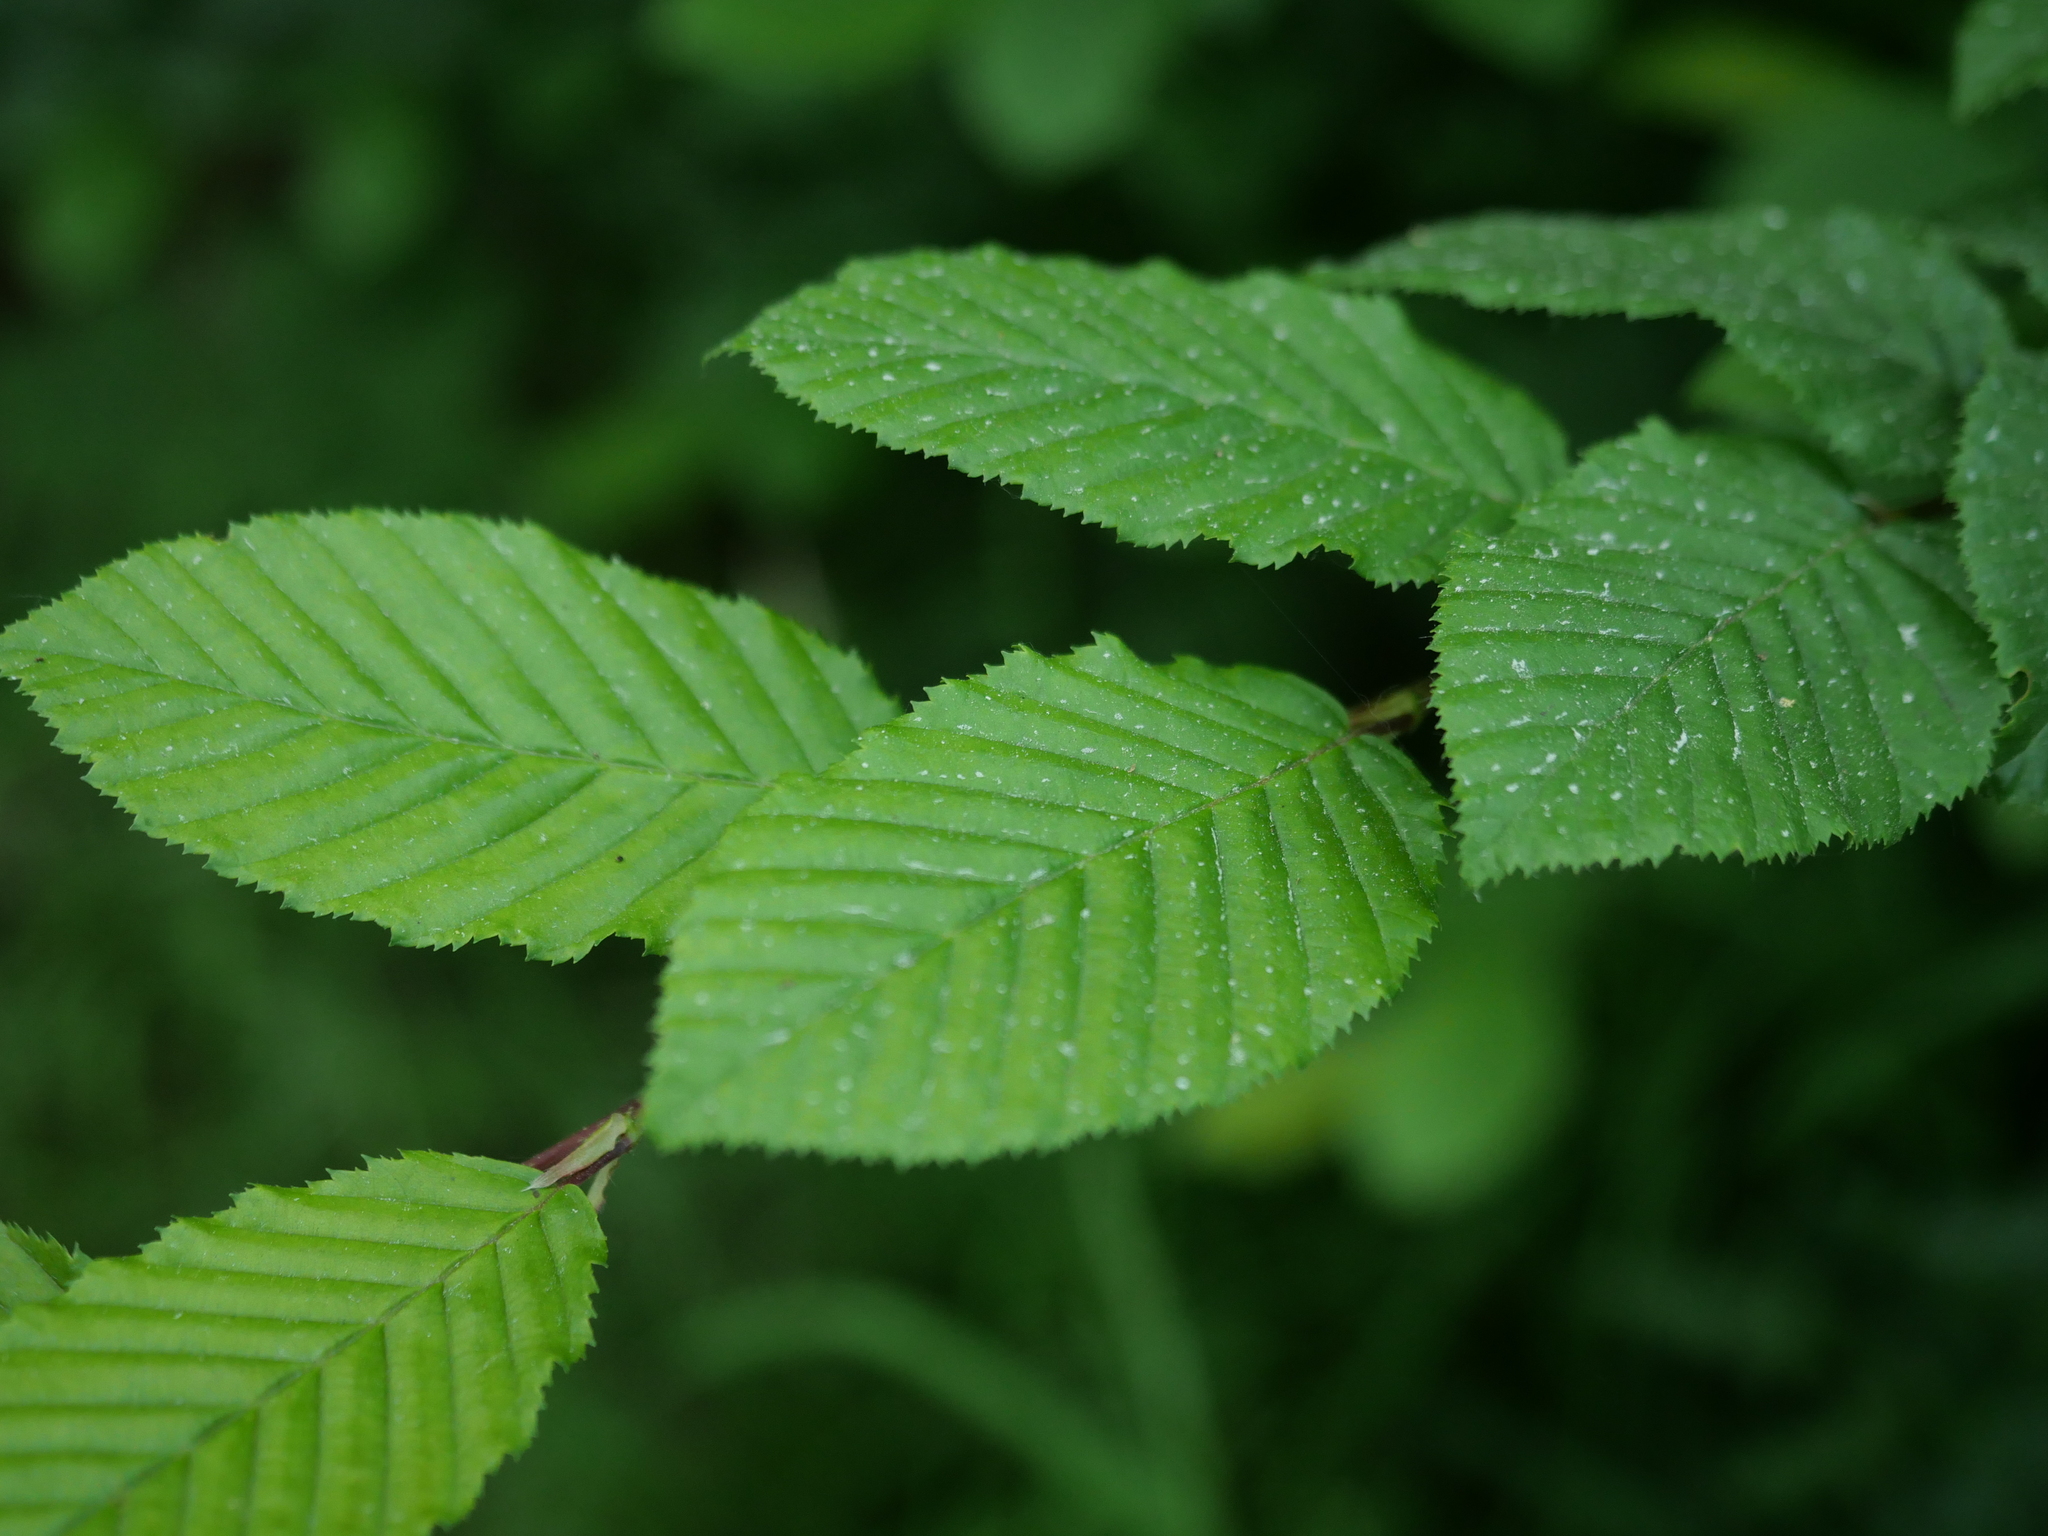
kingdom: Plantae
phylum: Tracheophyta
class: Magnoliopsida
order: Fagales
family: Betulaceae
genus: Carpinus
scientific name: Carpinus betulus
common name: Hornbeam
